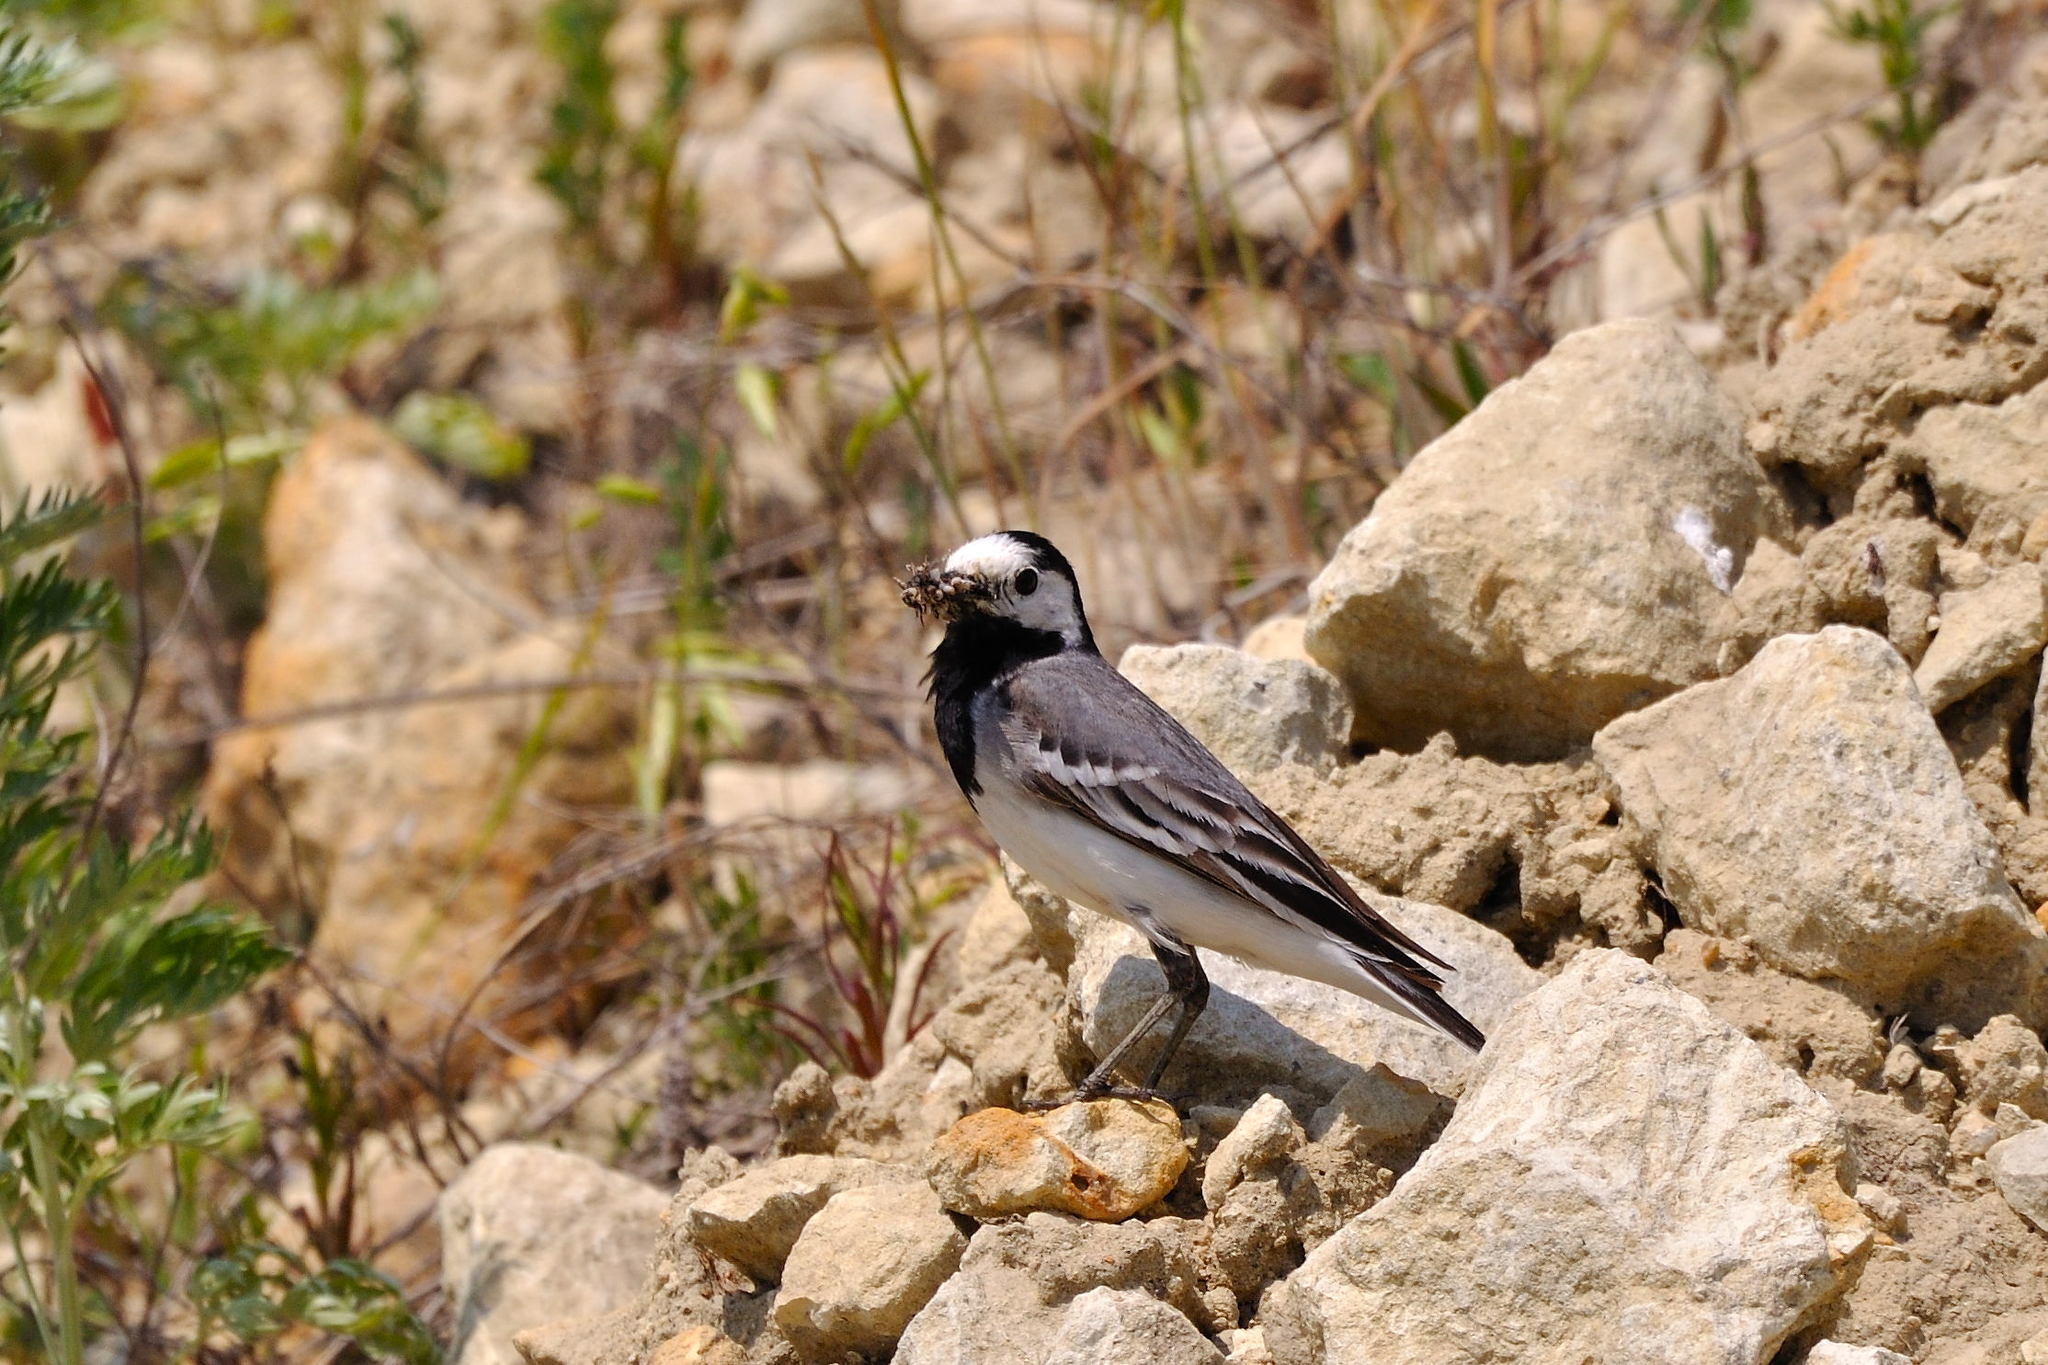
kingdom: Animalia
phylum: Chordata
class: Aves
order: Passeriformes
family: Motacillidae
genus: Motacilla
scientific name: Motacilla alba
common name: White wagtail
